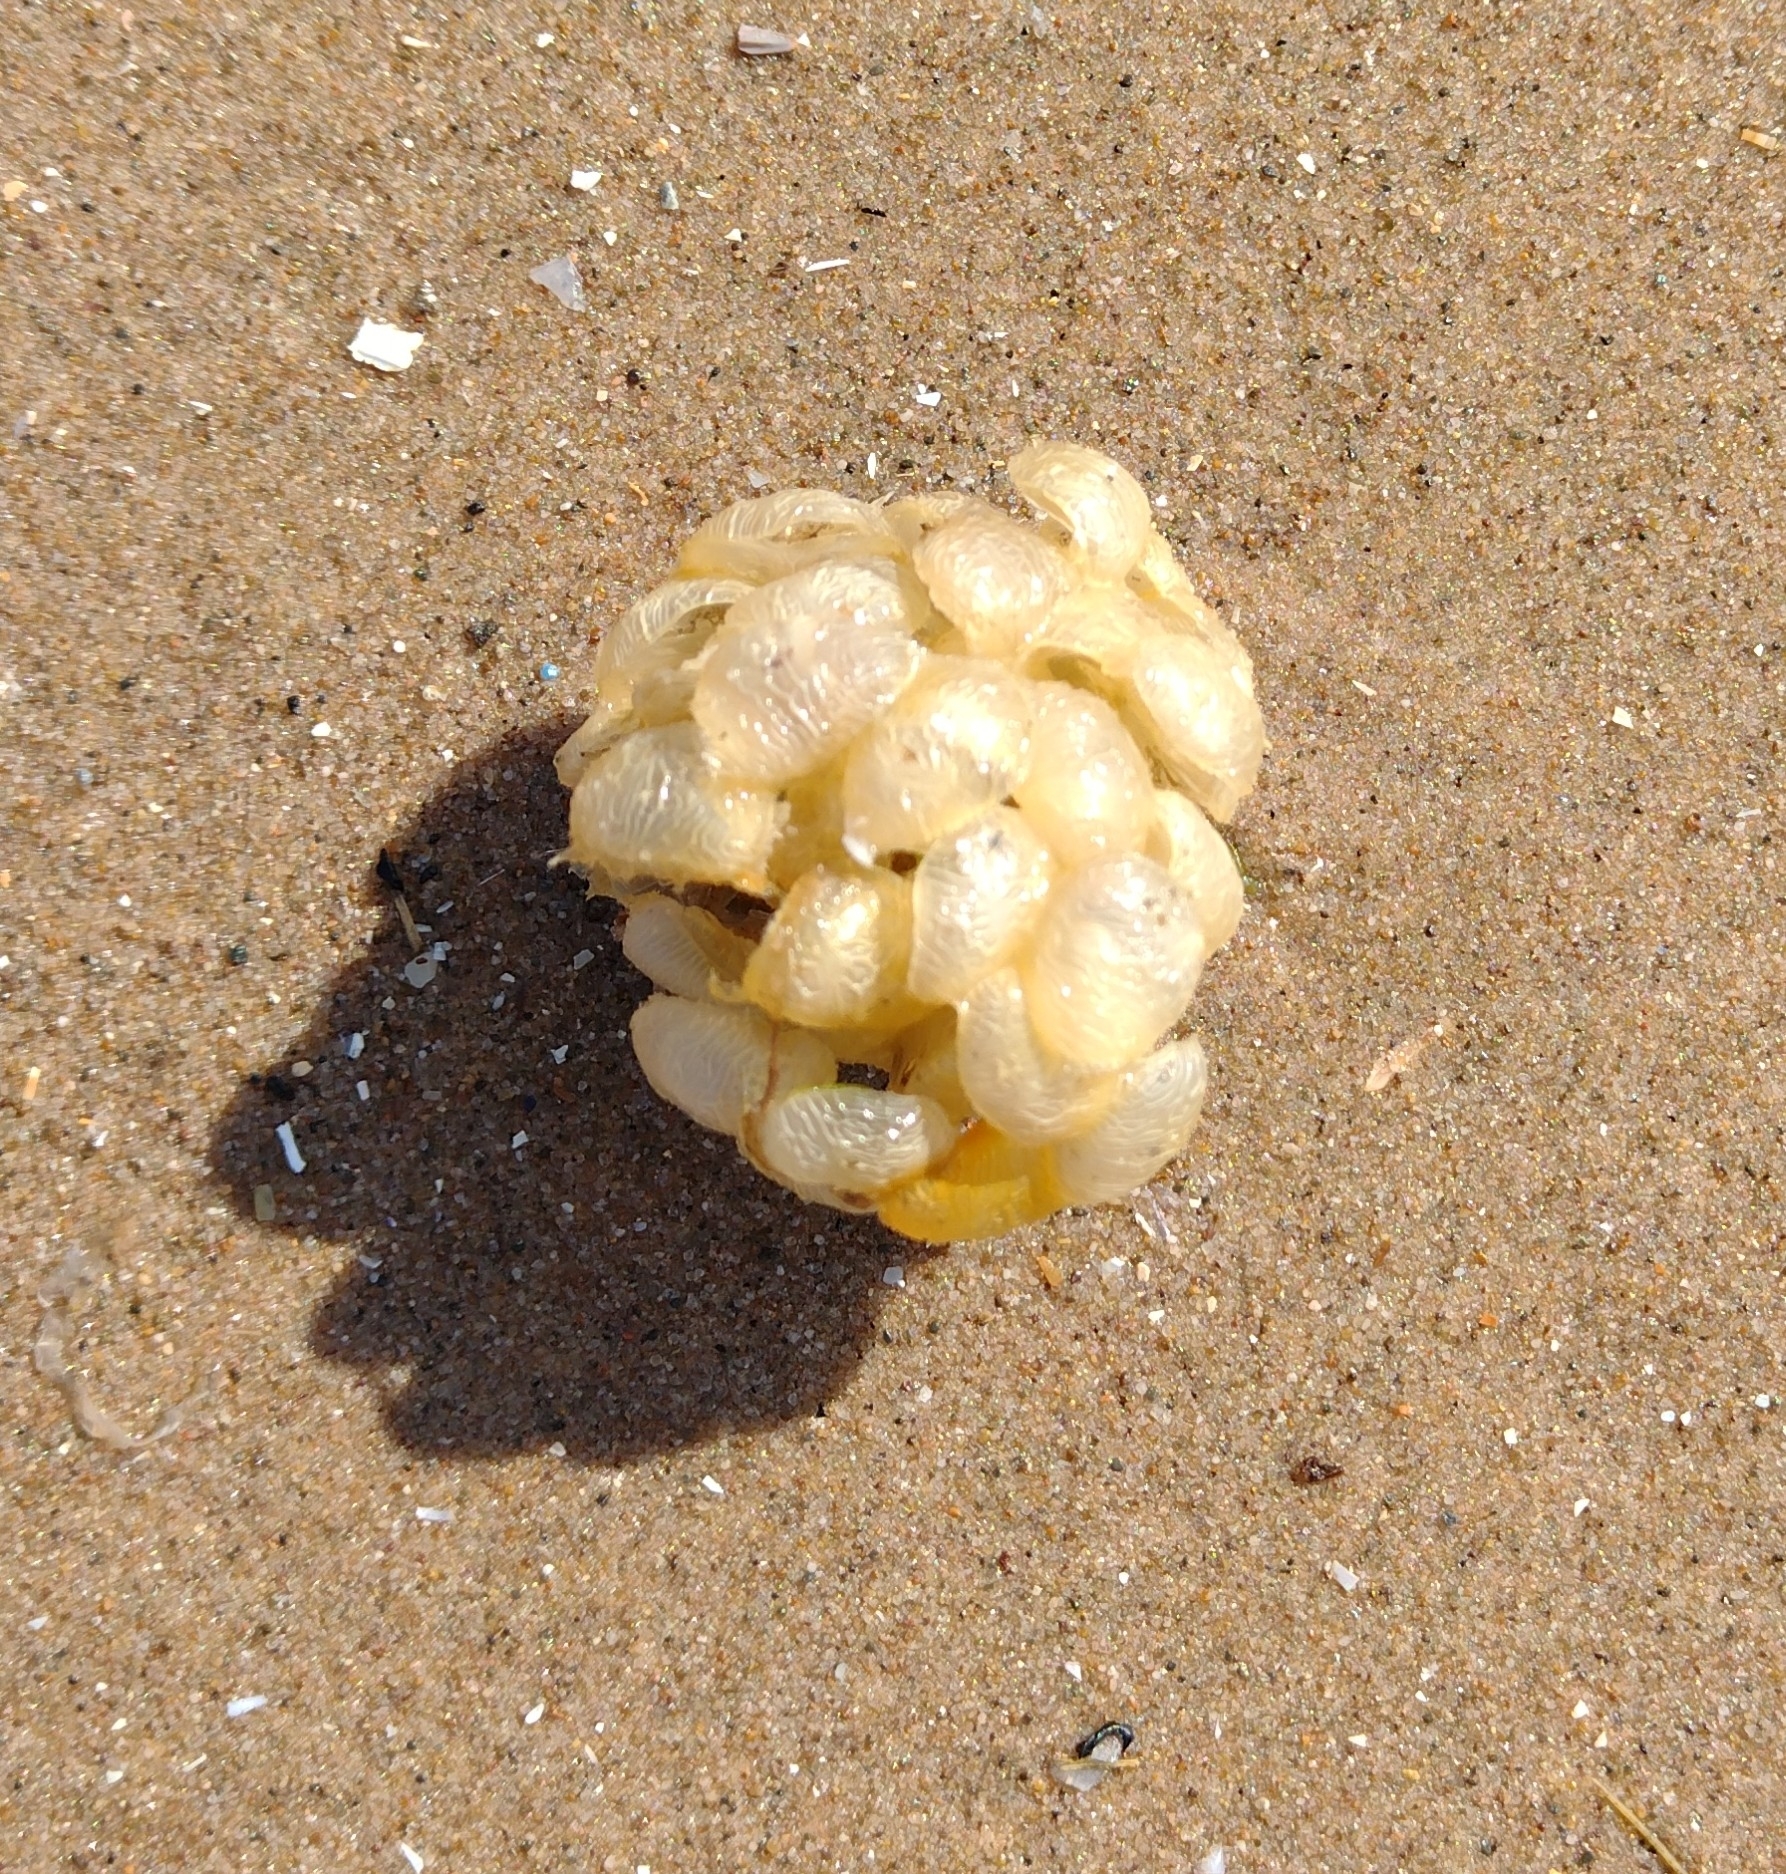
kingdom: Animalia
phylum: Mollusca
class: Gastropoda
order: Neogastropoda
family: Buccinidae
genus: Buccinum
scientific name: Buccinum undatum
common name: Common whelk
